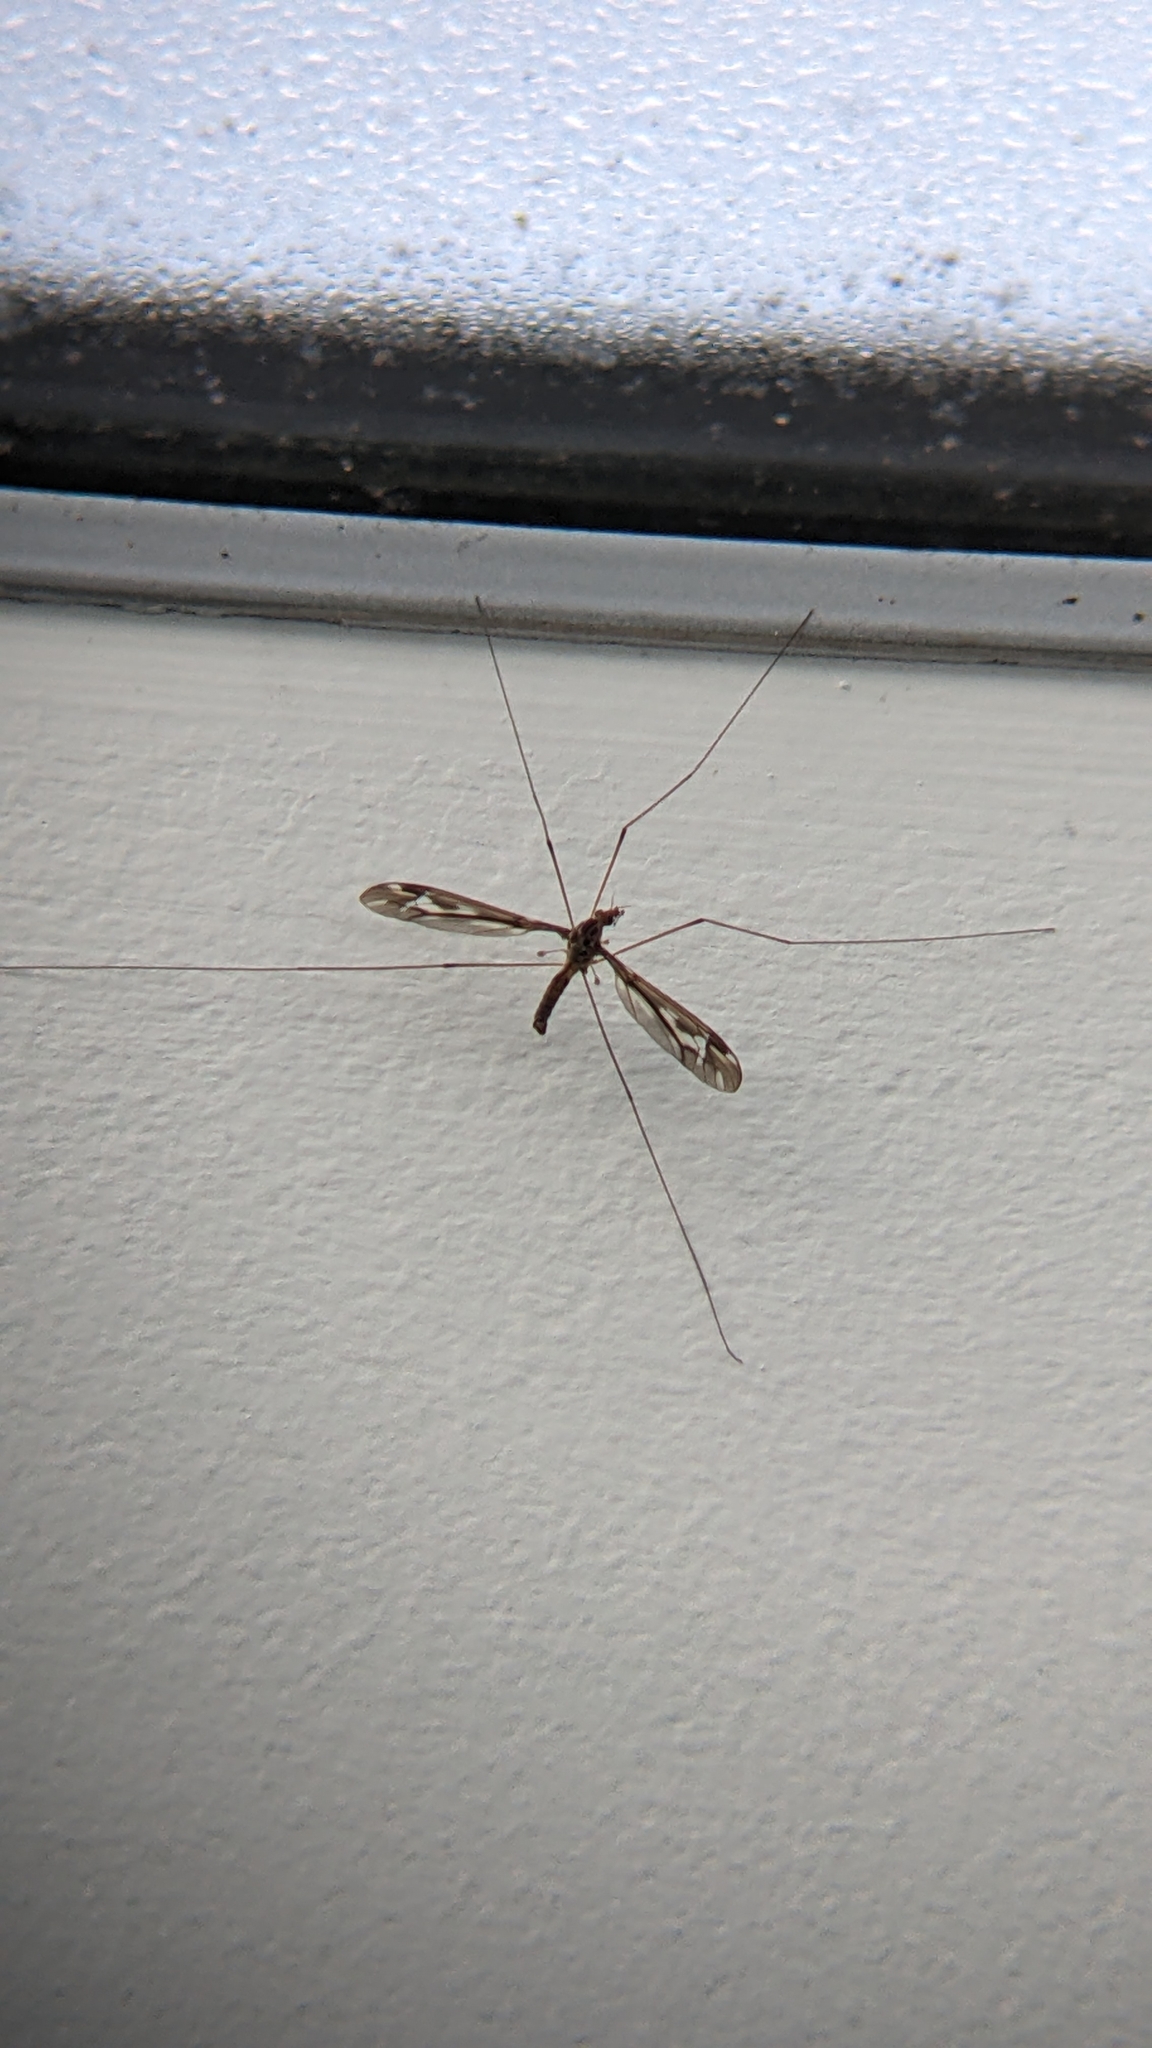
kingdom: Animalia
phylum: Arthropoda
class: Insecta
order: Diptera
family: Tipulidae
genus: Leptotarsus
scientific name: Leptotarsus huttoni
